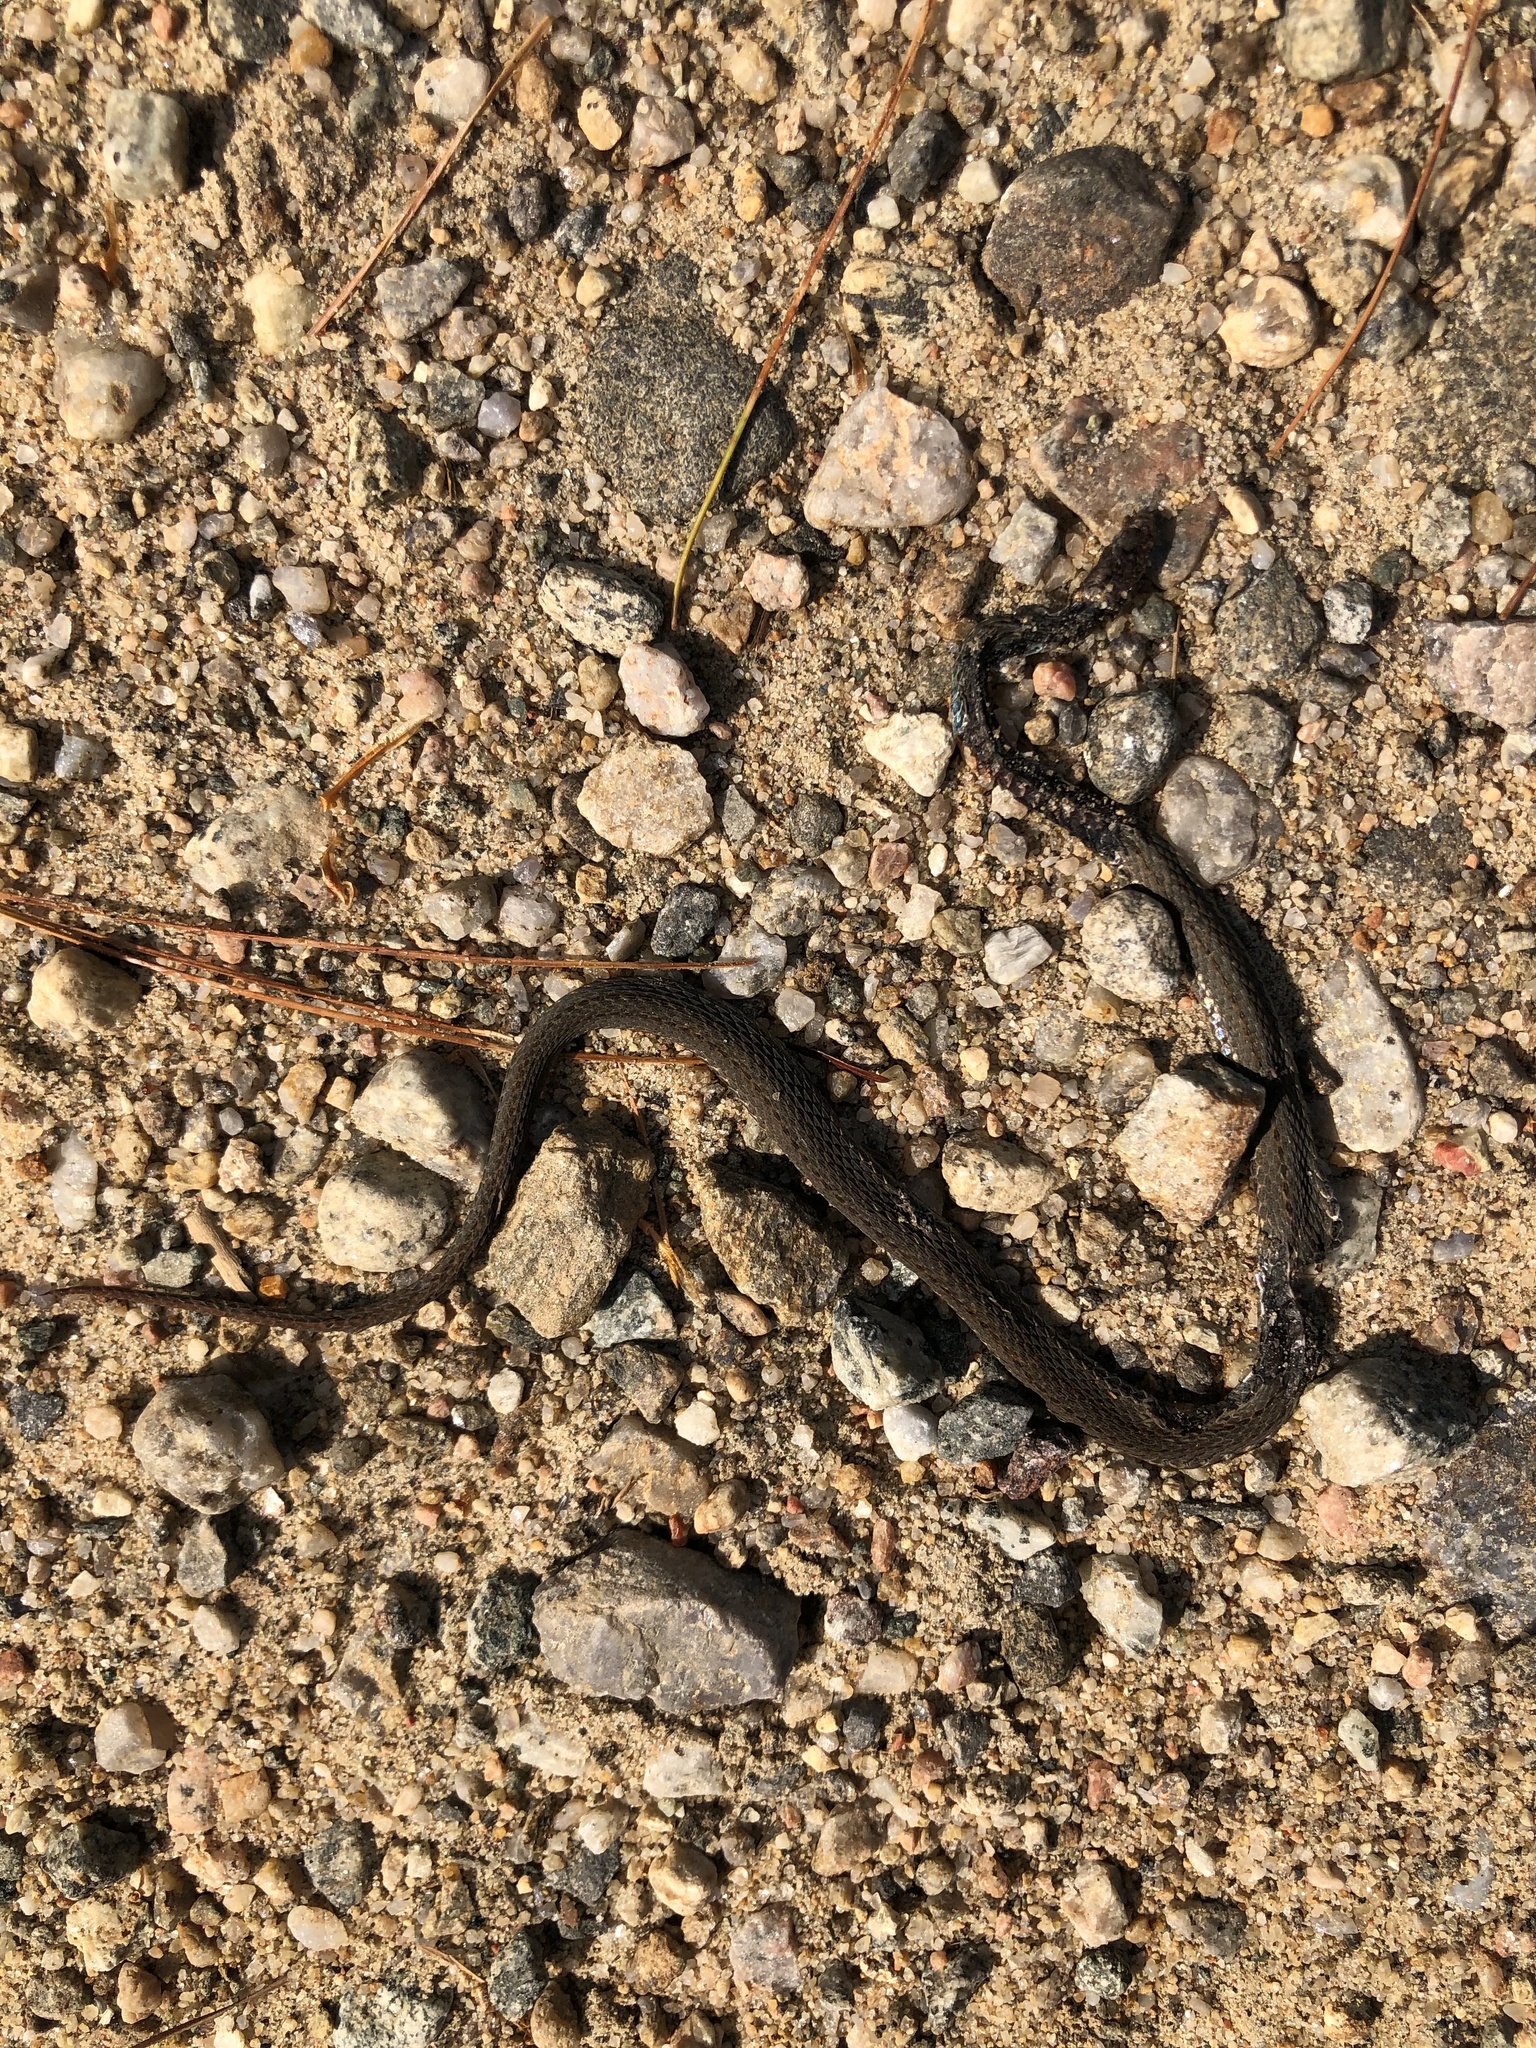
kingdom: Animalia
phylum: Chordata
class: Squamata
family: Colubridae
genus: Storeria
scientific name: Storeria occipitomaculata
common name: Redbelly snake
